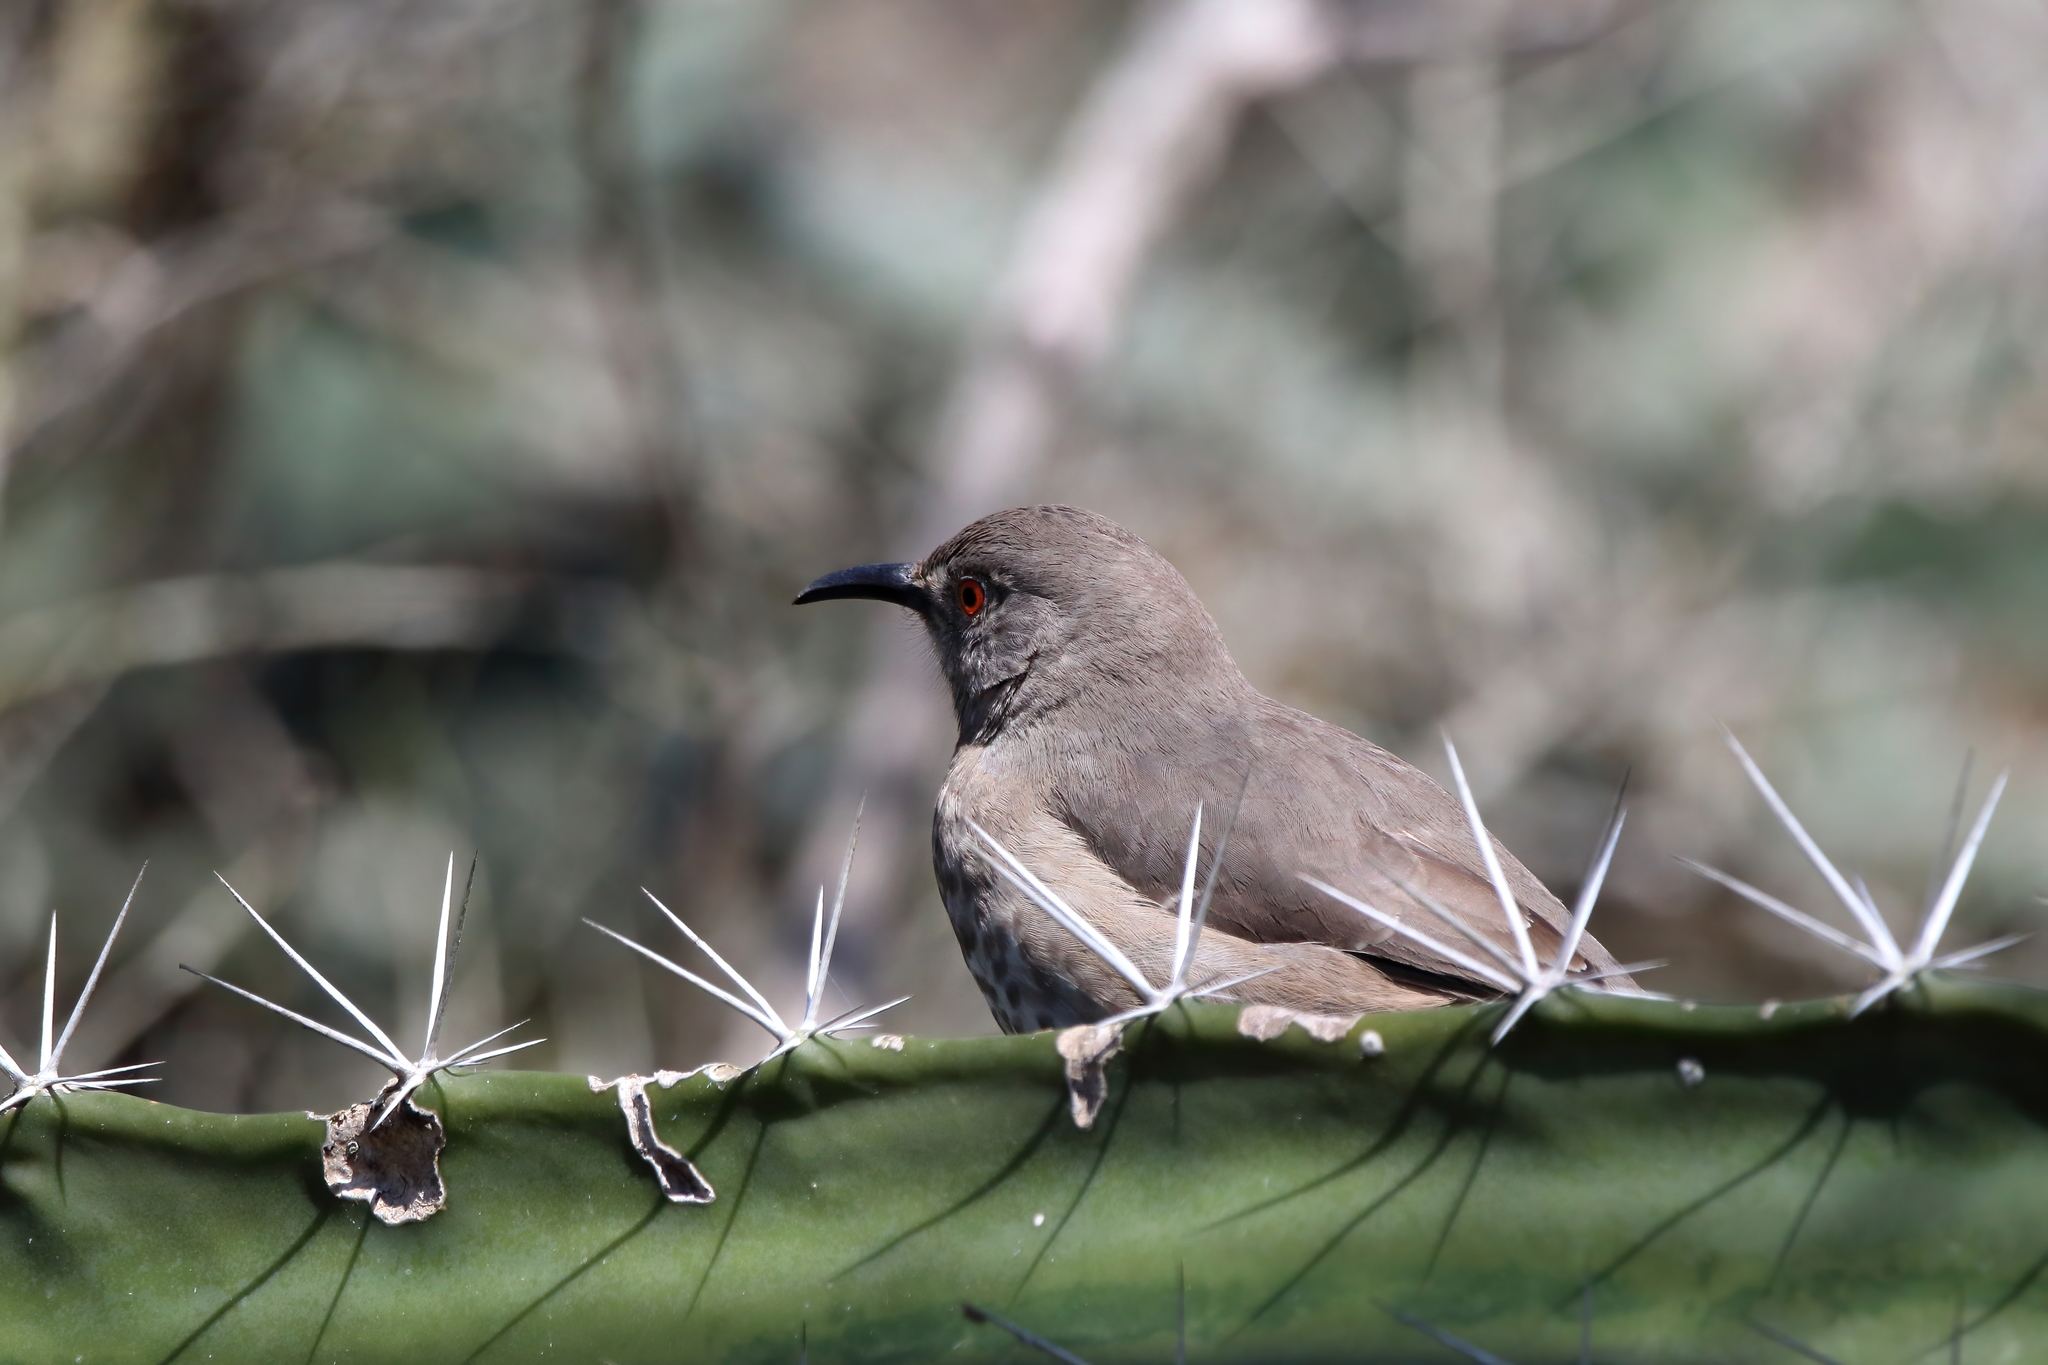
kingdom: Animalia
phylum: Chordata
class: Aves
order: Passeriformes
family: Mimidae
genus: Toxostoma
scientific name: Toxostoma curvirostre
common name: Curve-billed thrasher
